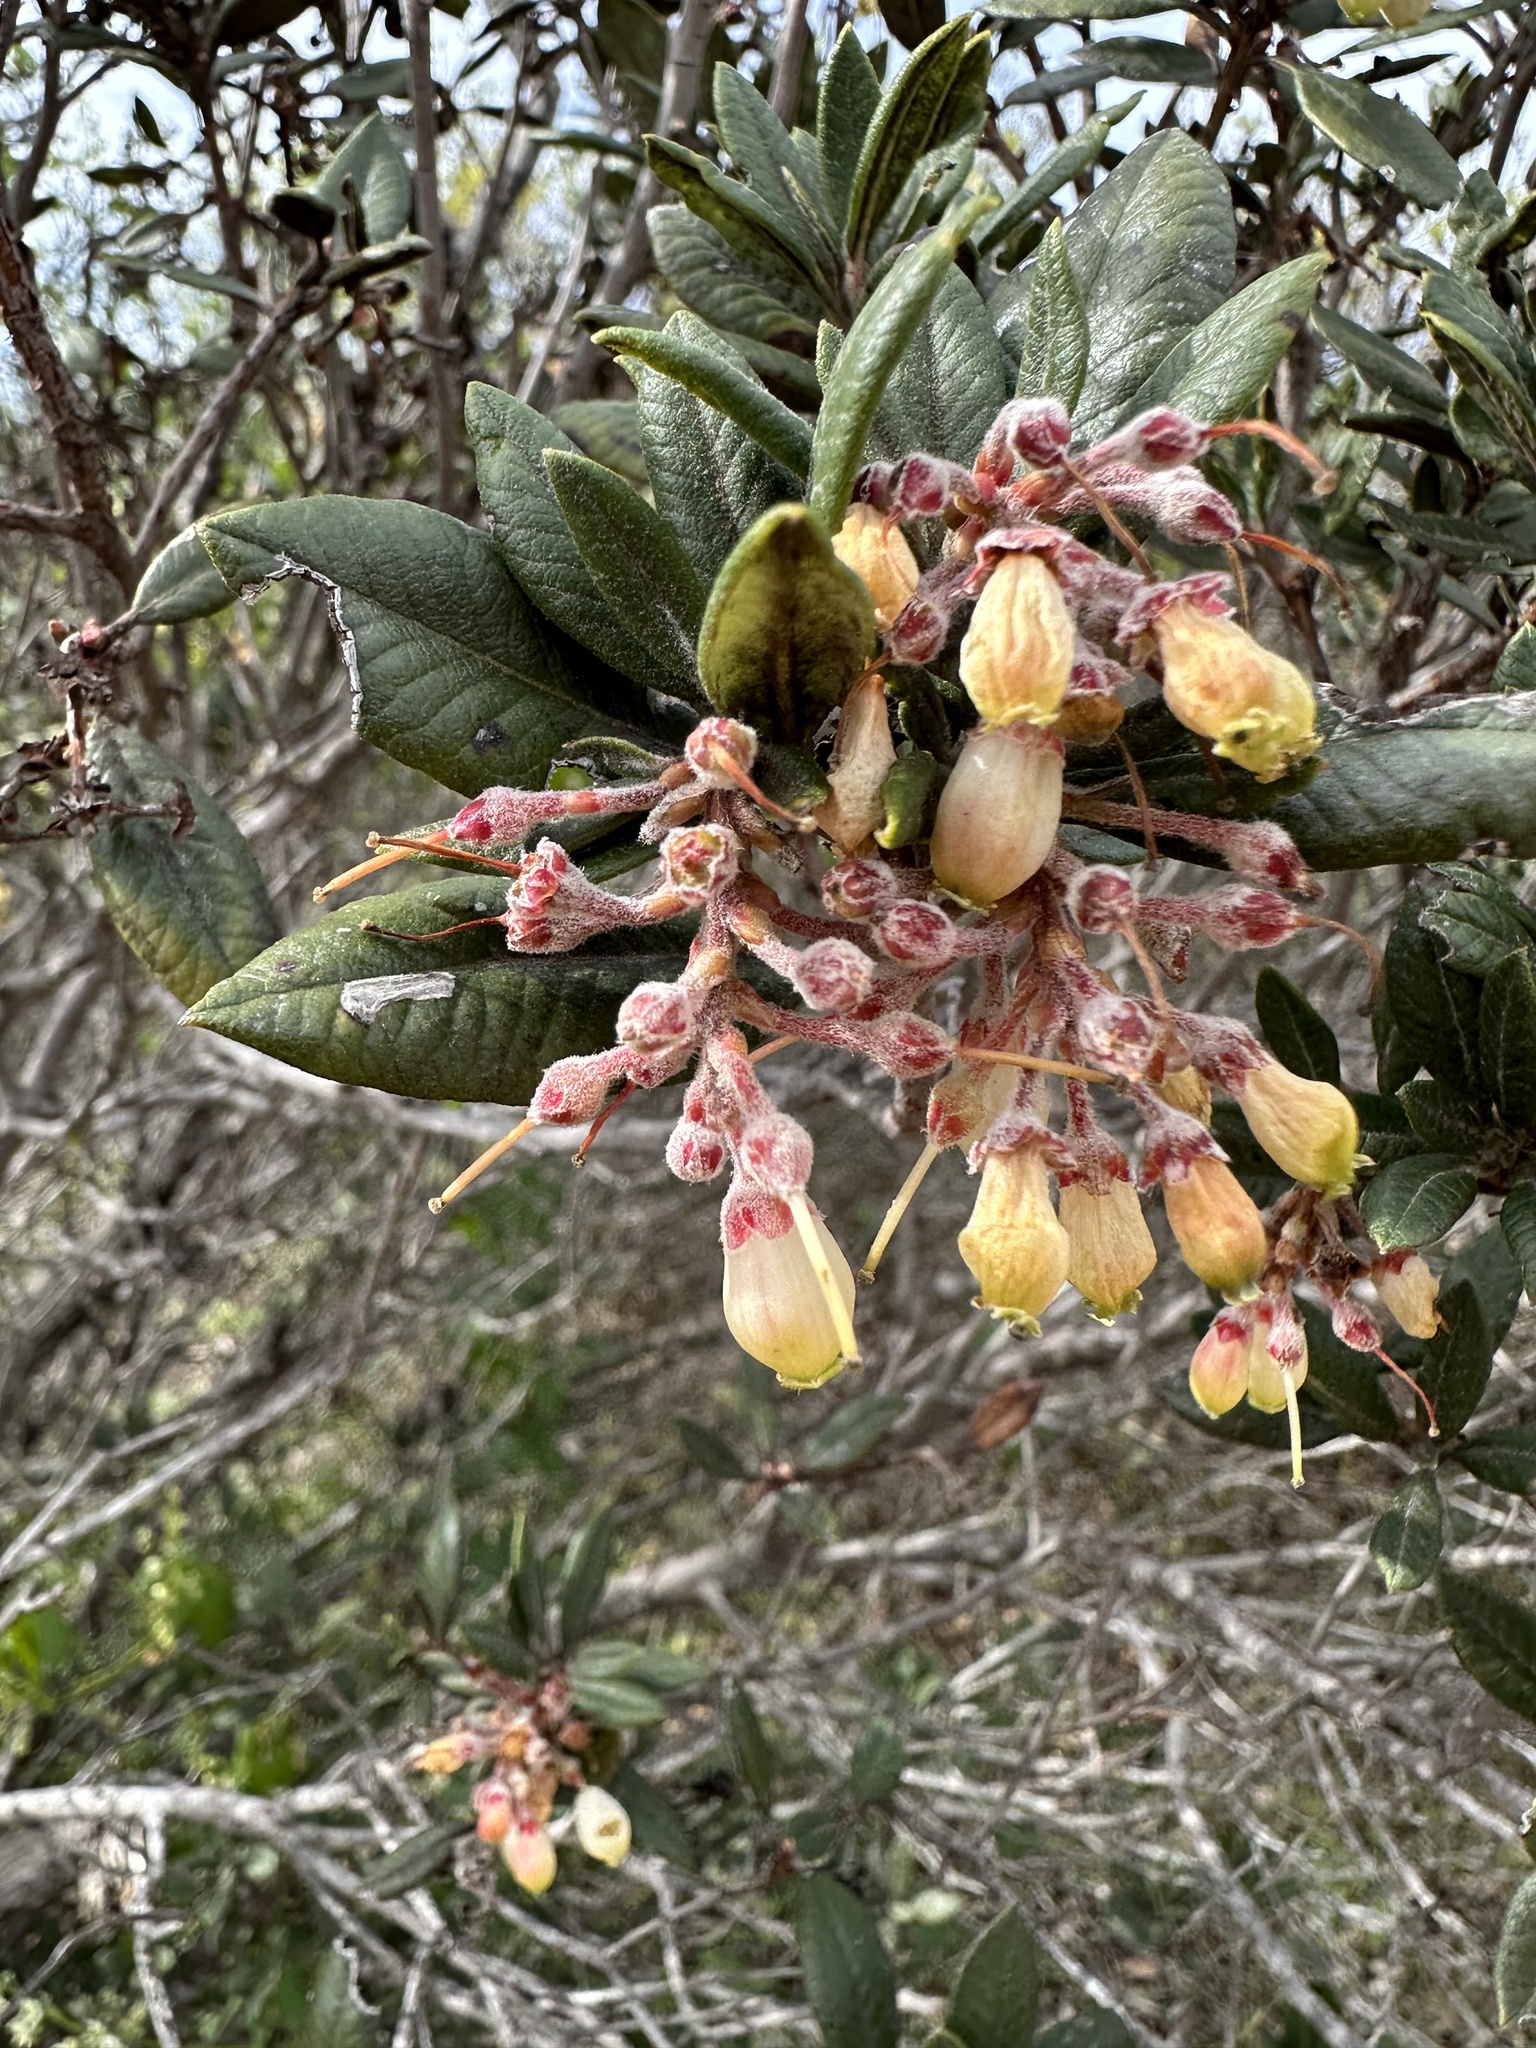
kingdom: Plantae
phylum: Tracheophyta
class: Magnoliopsida
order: Ericales
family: Ericaceae
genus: Arctostaphylos
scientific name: Arctostaphylos bicolor
